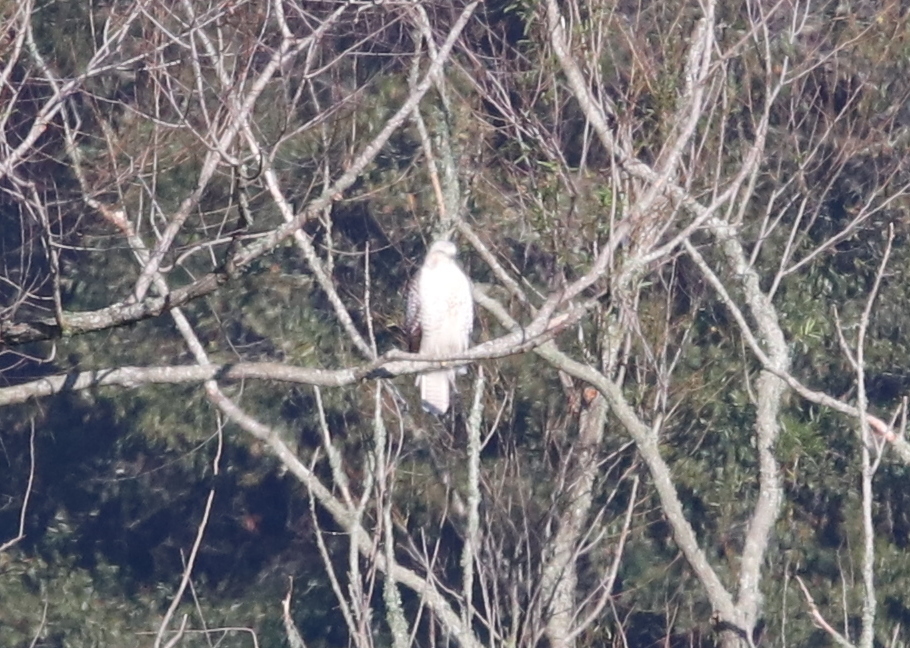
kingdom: Animalia
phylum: Chordata
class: Aves
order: Accipitriformes
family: Accipitridae
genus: Buteo
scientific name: Buteo jamaicensis
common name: Red-tailed hawk
